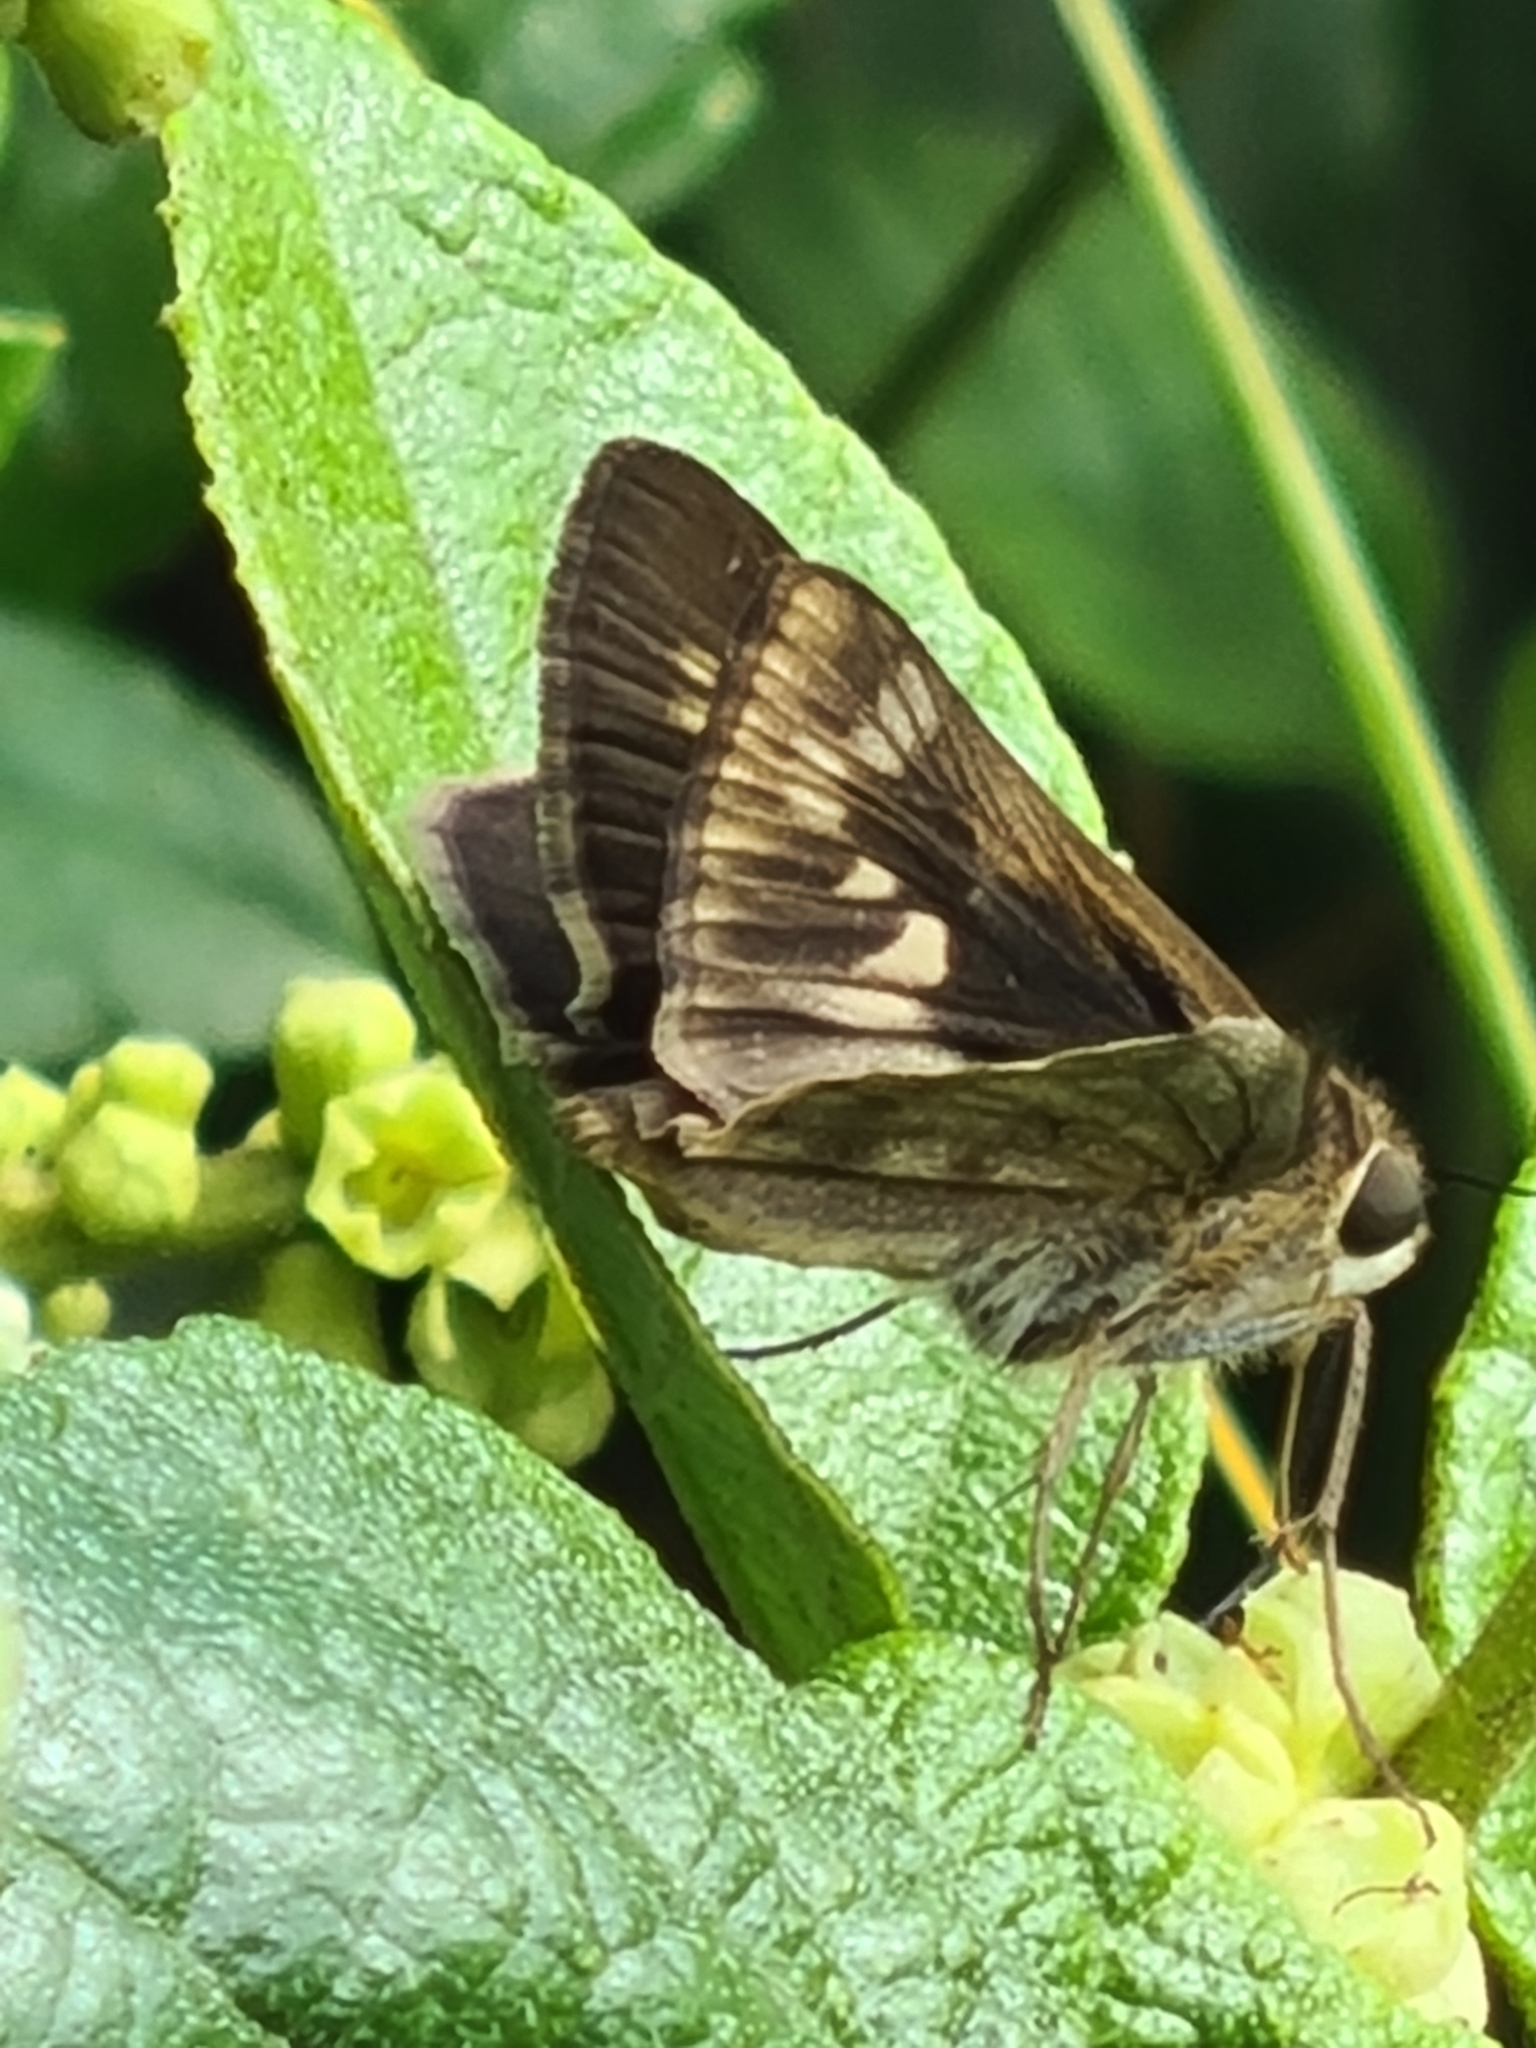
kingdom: Animalia
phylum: Arthropoda
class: Insecta
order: Lepidoptera
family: Hesperiidae
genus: Pompeius
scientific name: Pompeius pompeius
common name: Pompeius skipper
